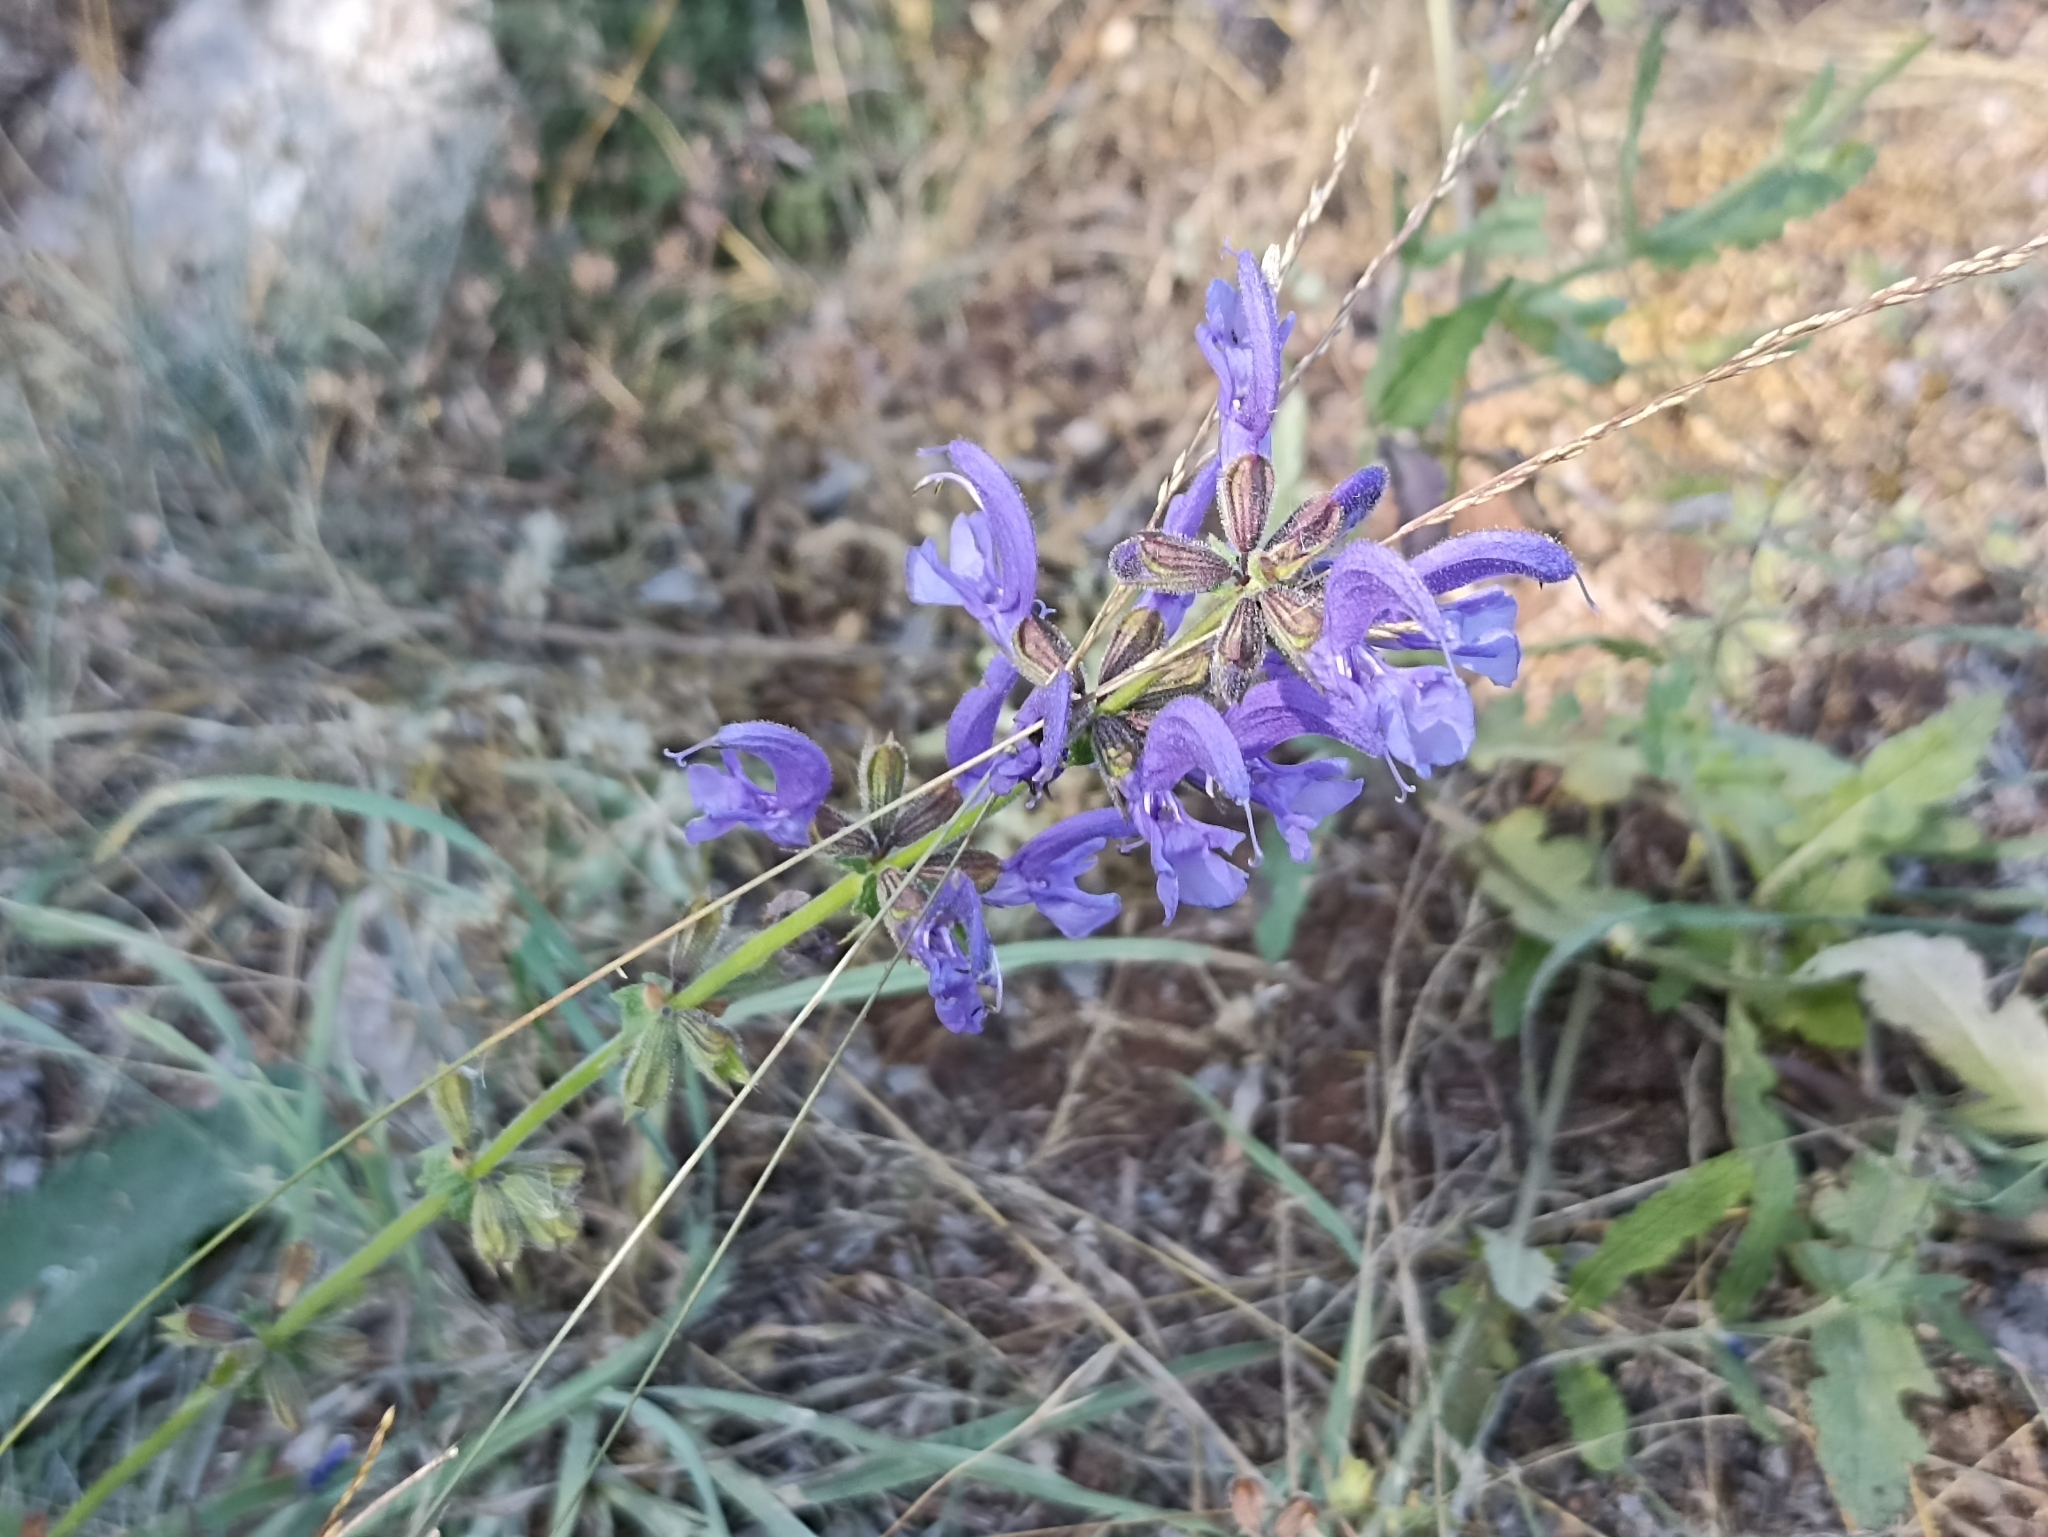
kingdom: Plantae
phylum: Tracheophyta
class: Magnoliopsida
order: Lamiales
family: Lamiaceae
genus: Salvia
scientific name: Salvia pratensis
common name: Meadow sage
